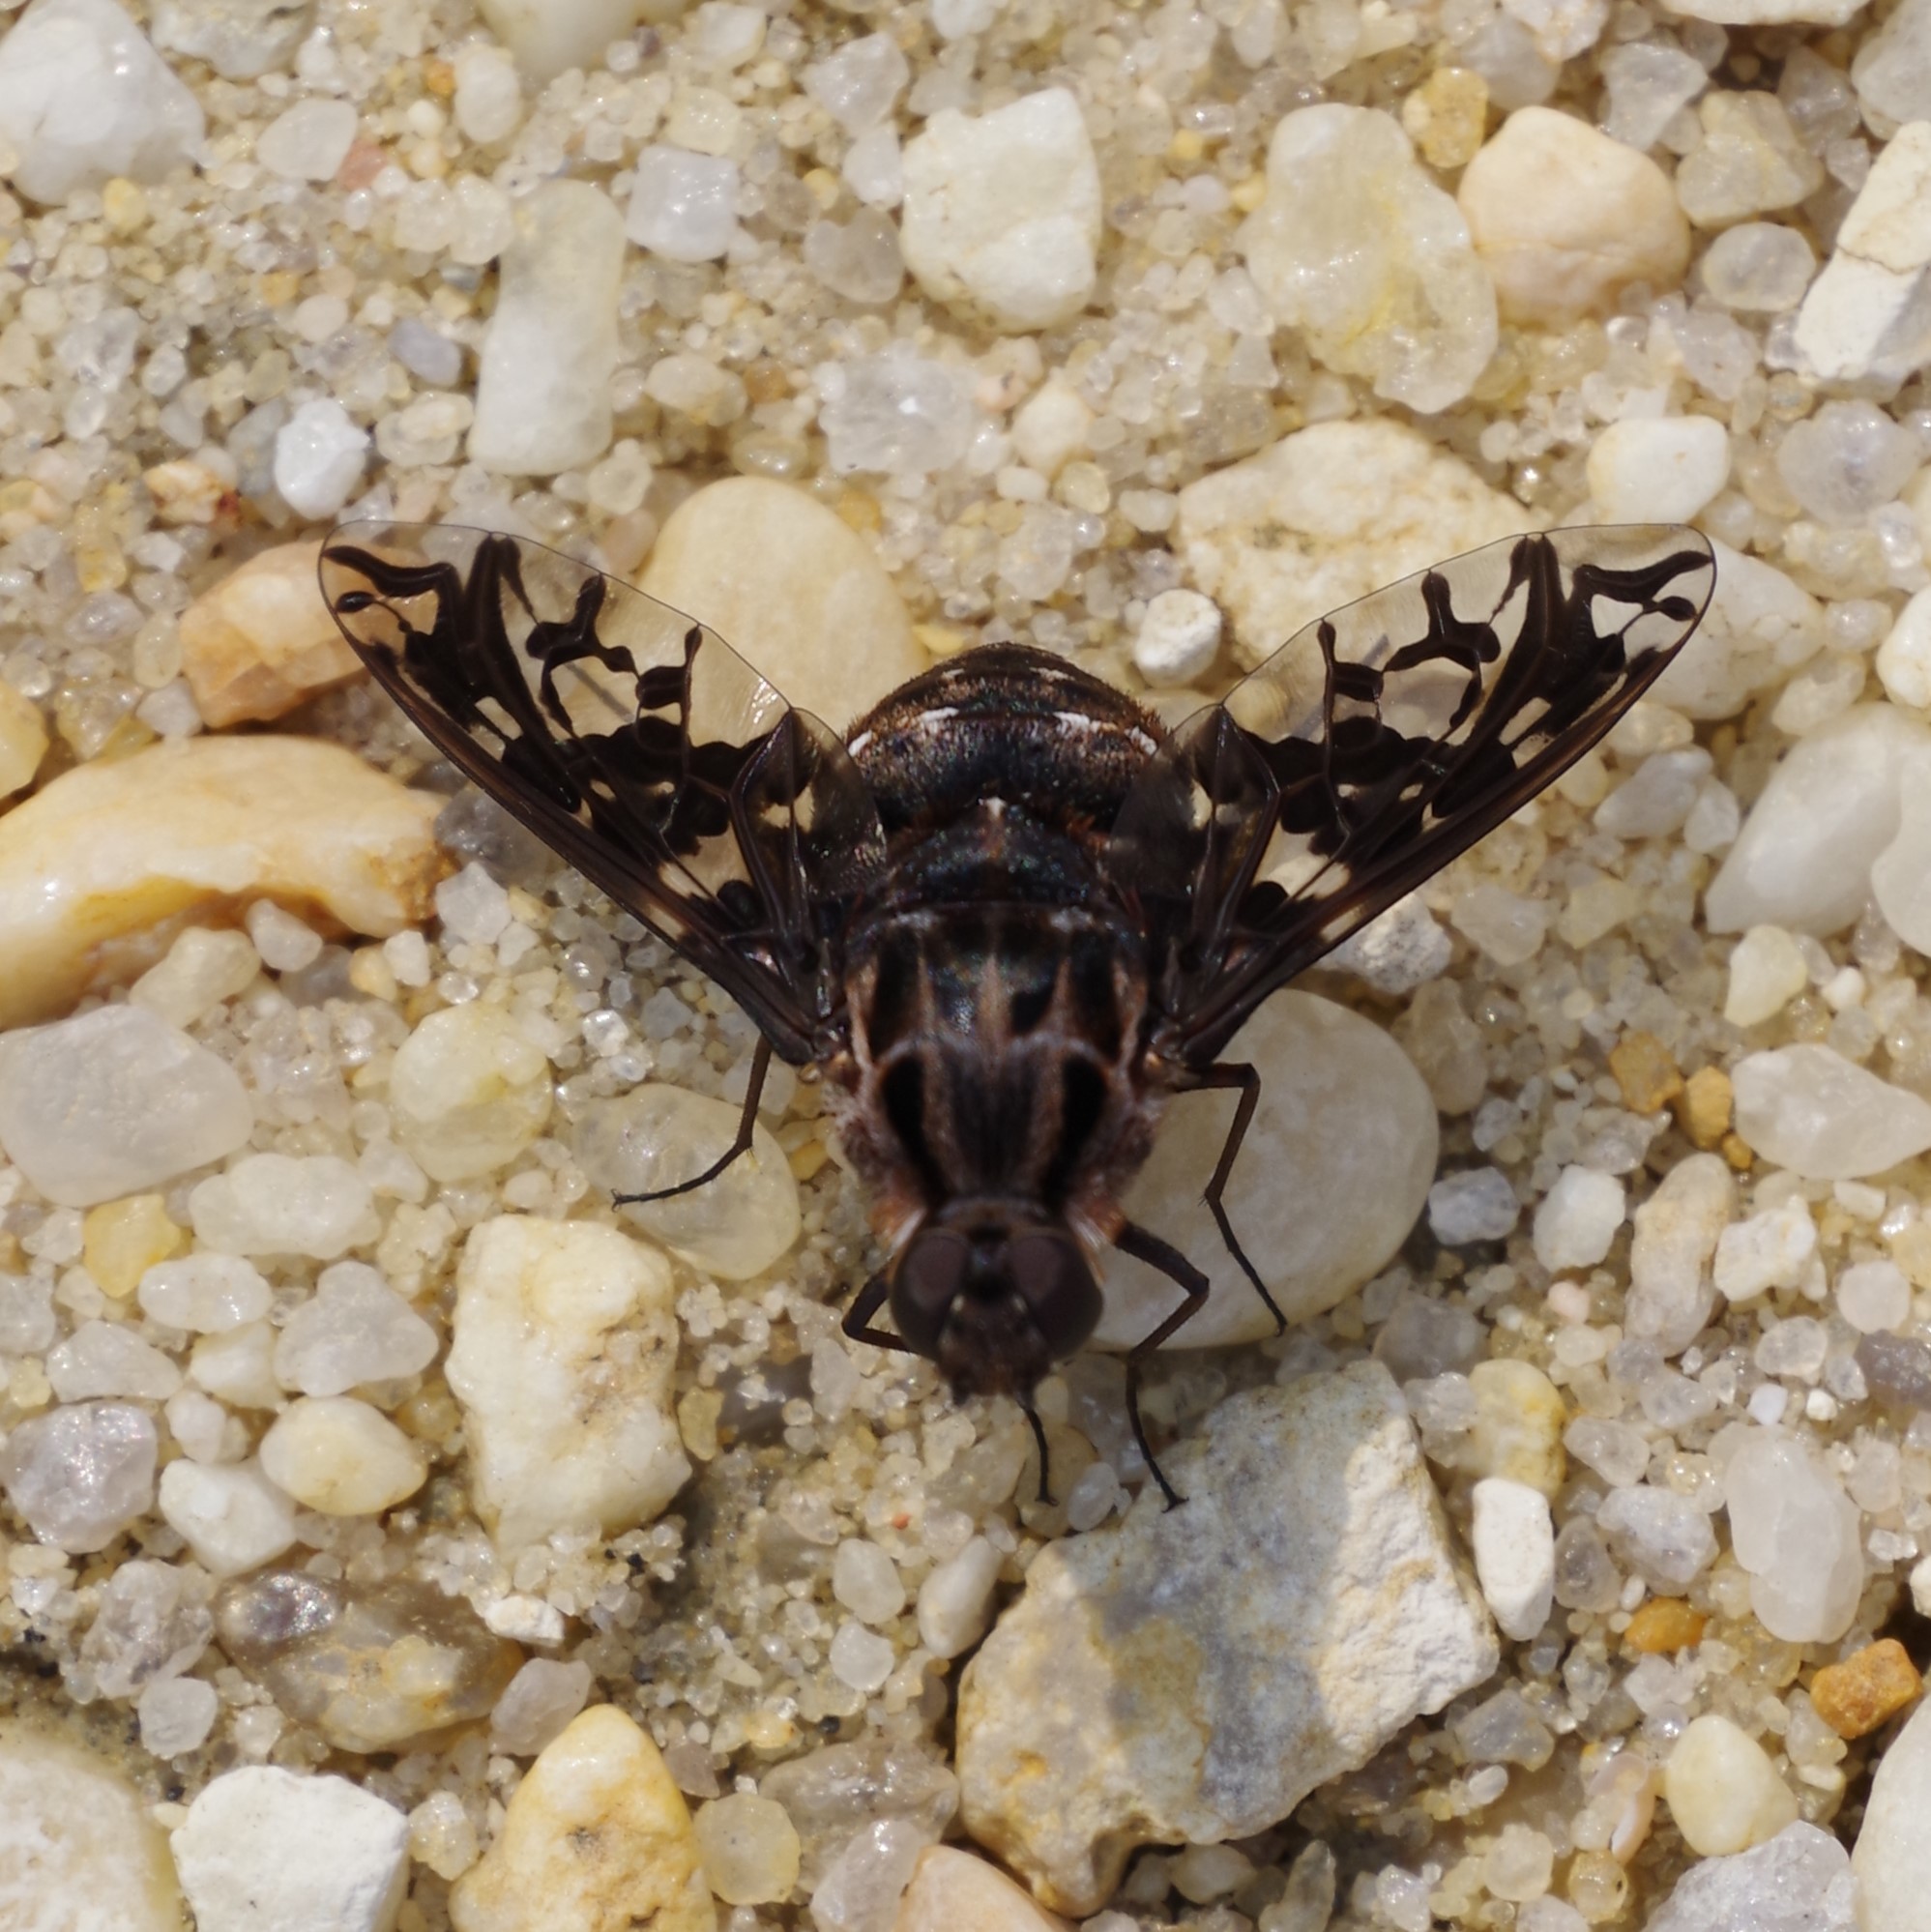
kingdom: Animalia
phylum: Arthropoda
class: Insecta
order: Diptera
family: Bombyliidae
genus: Xenox
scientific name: Xenox tigrinus
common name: Tiger bee fly
